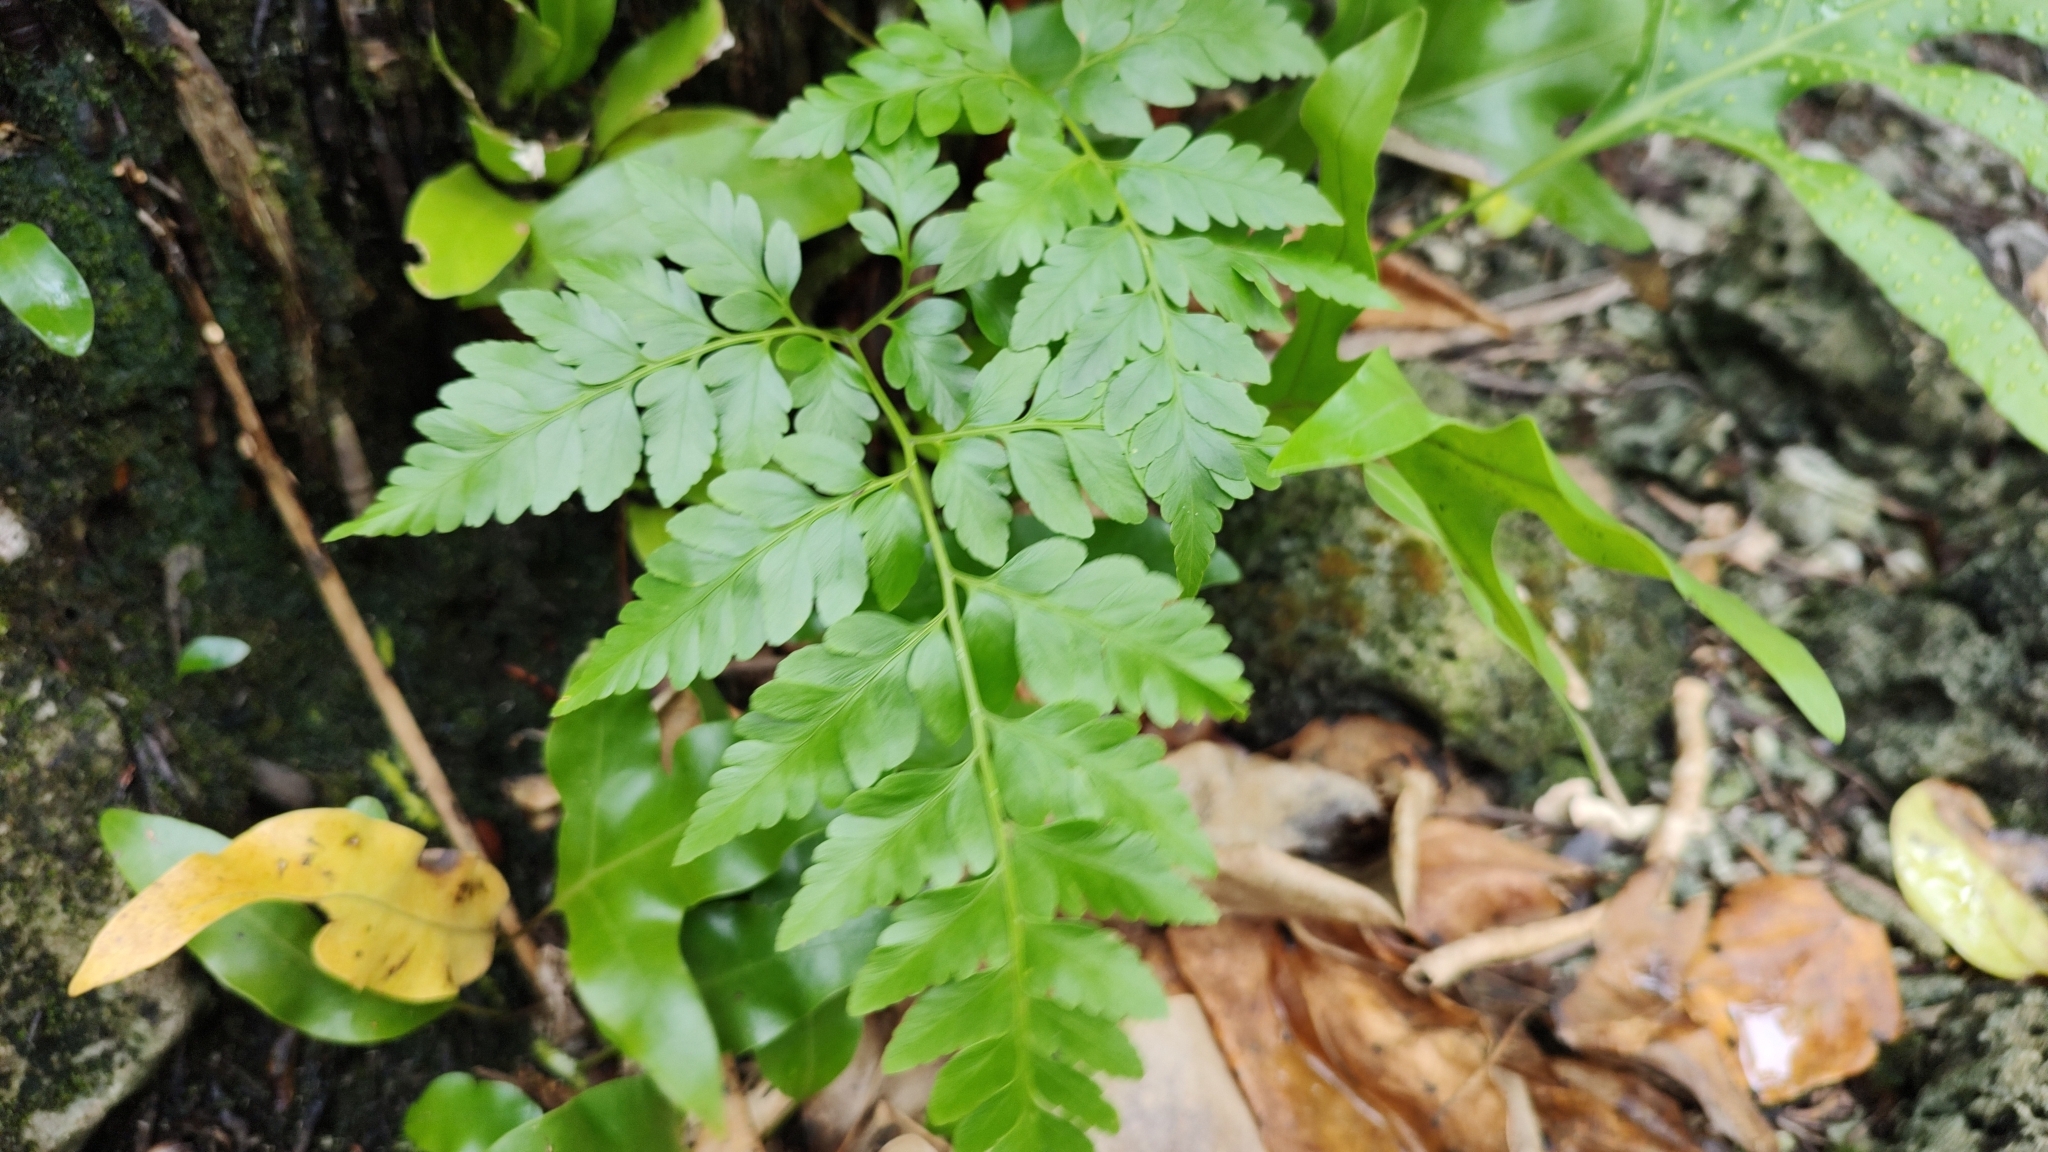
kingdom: Plantae
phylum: Tracheophyta
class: Polypodiopsida
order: Polypodiales
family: Davalliaceae
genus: Davallia
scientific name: Davallia solida
